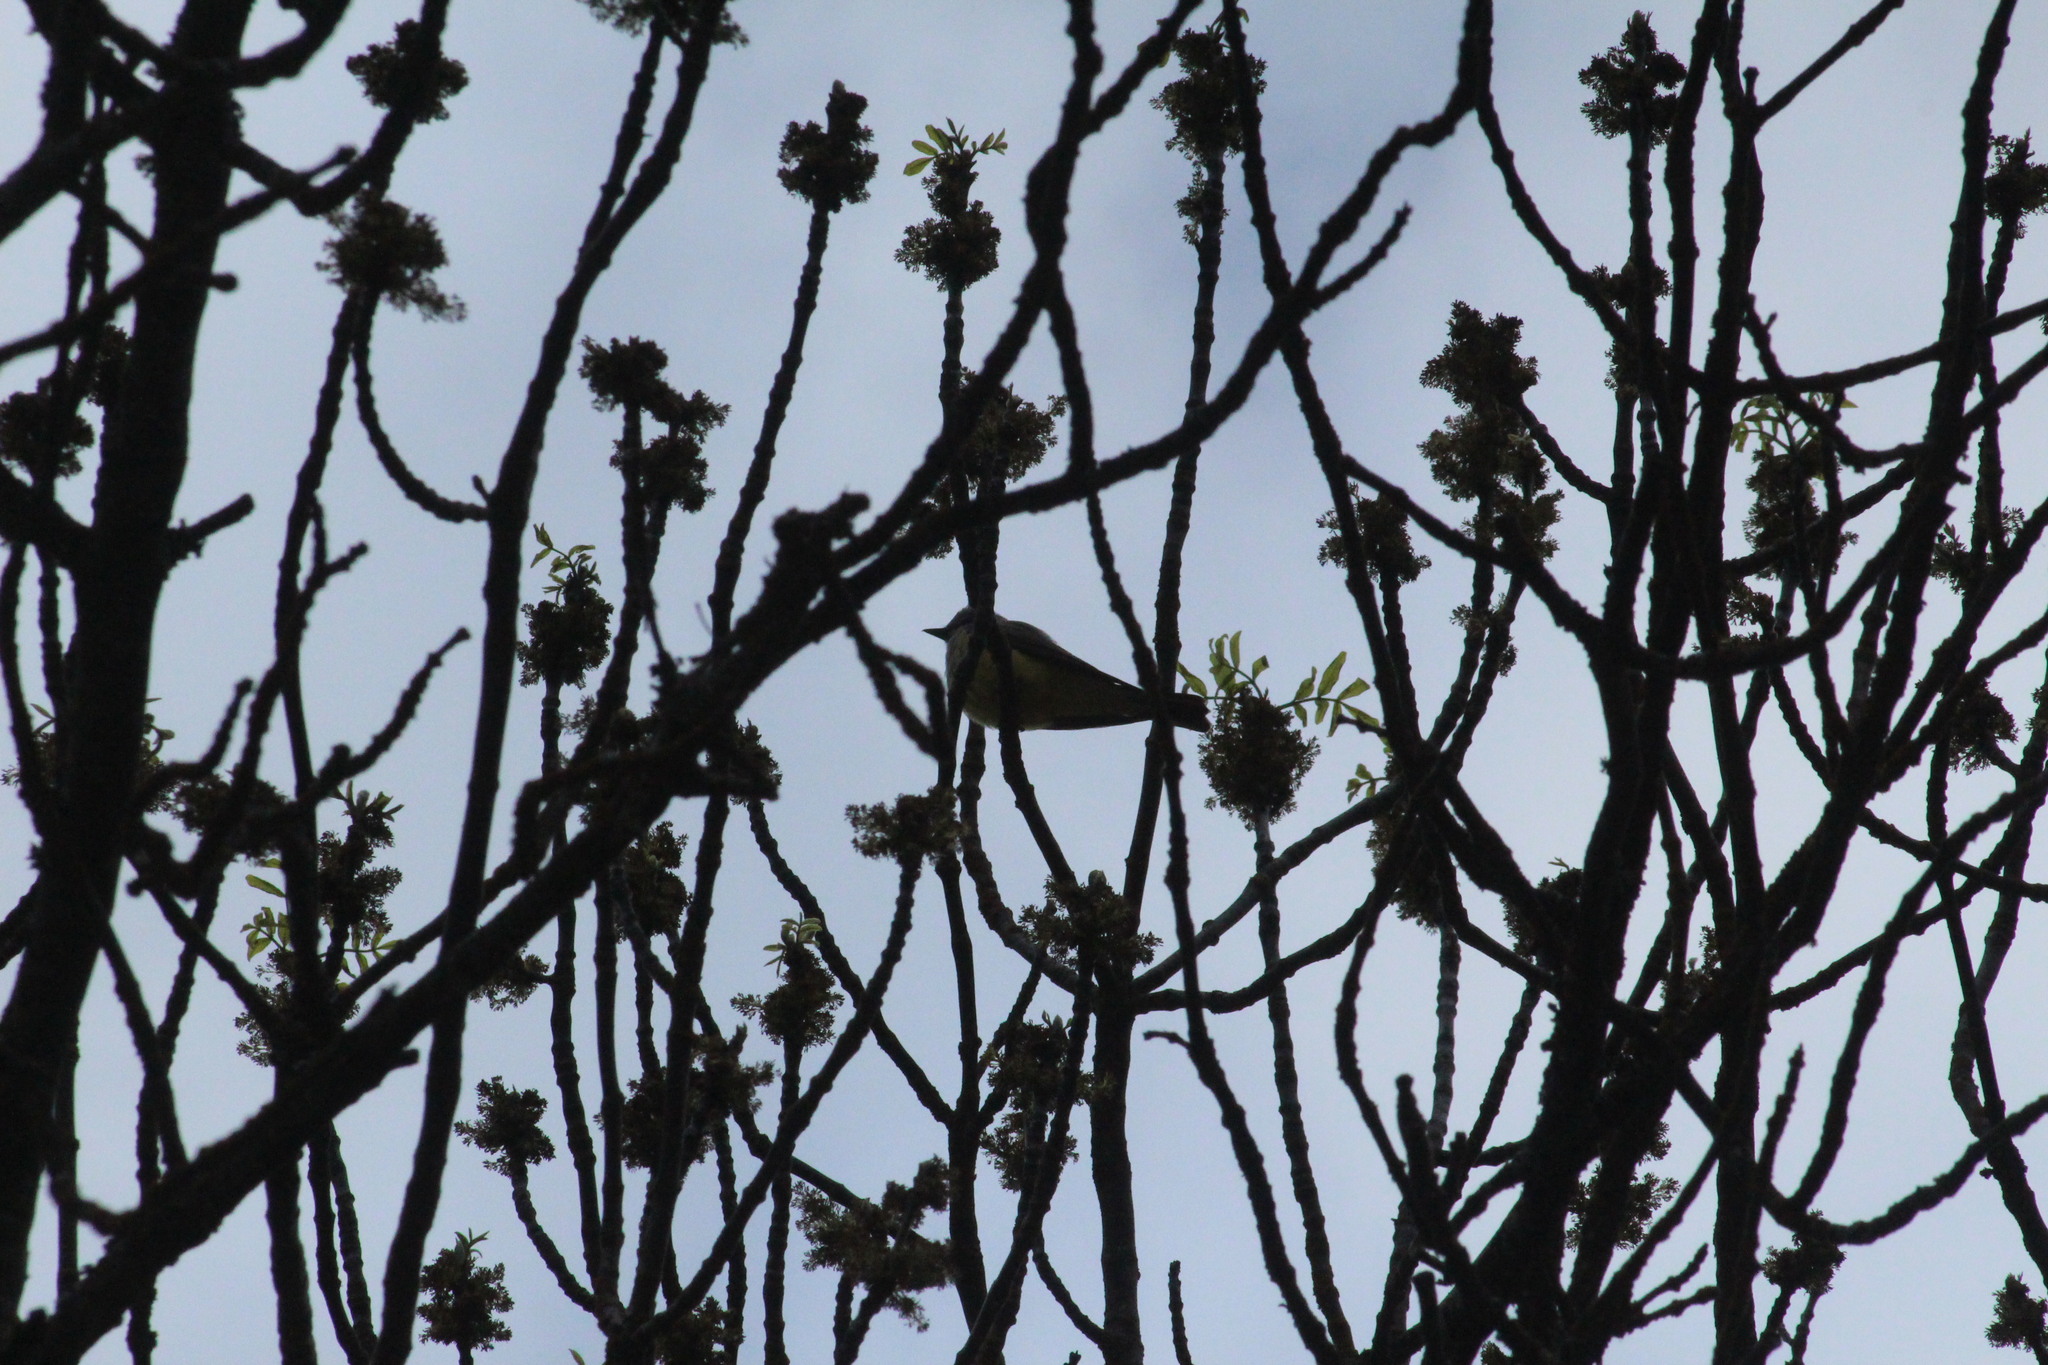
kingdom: Animalia
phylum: Chordata
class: Aves
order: Passeriformes
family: Tyrannidae
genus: Tyrannus
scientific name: Tyrannus verticalis
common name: Western kingbird
